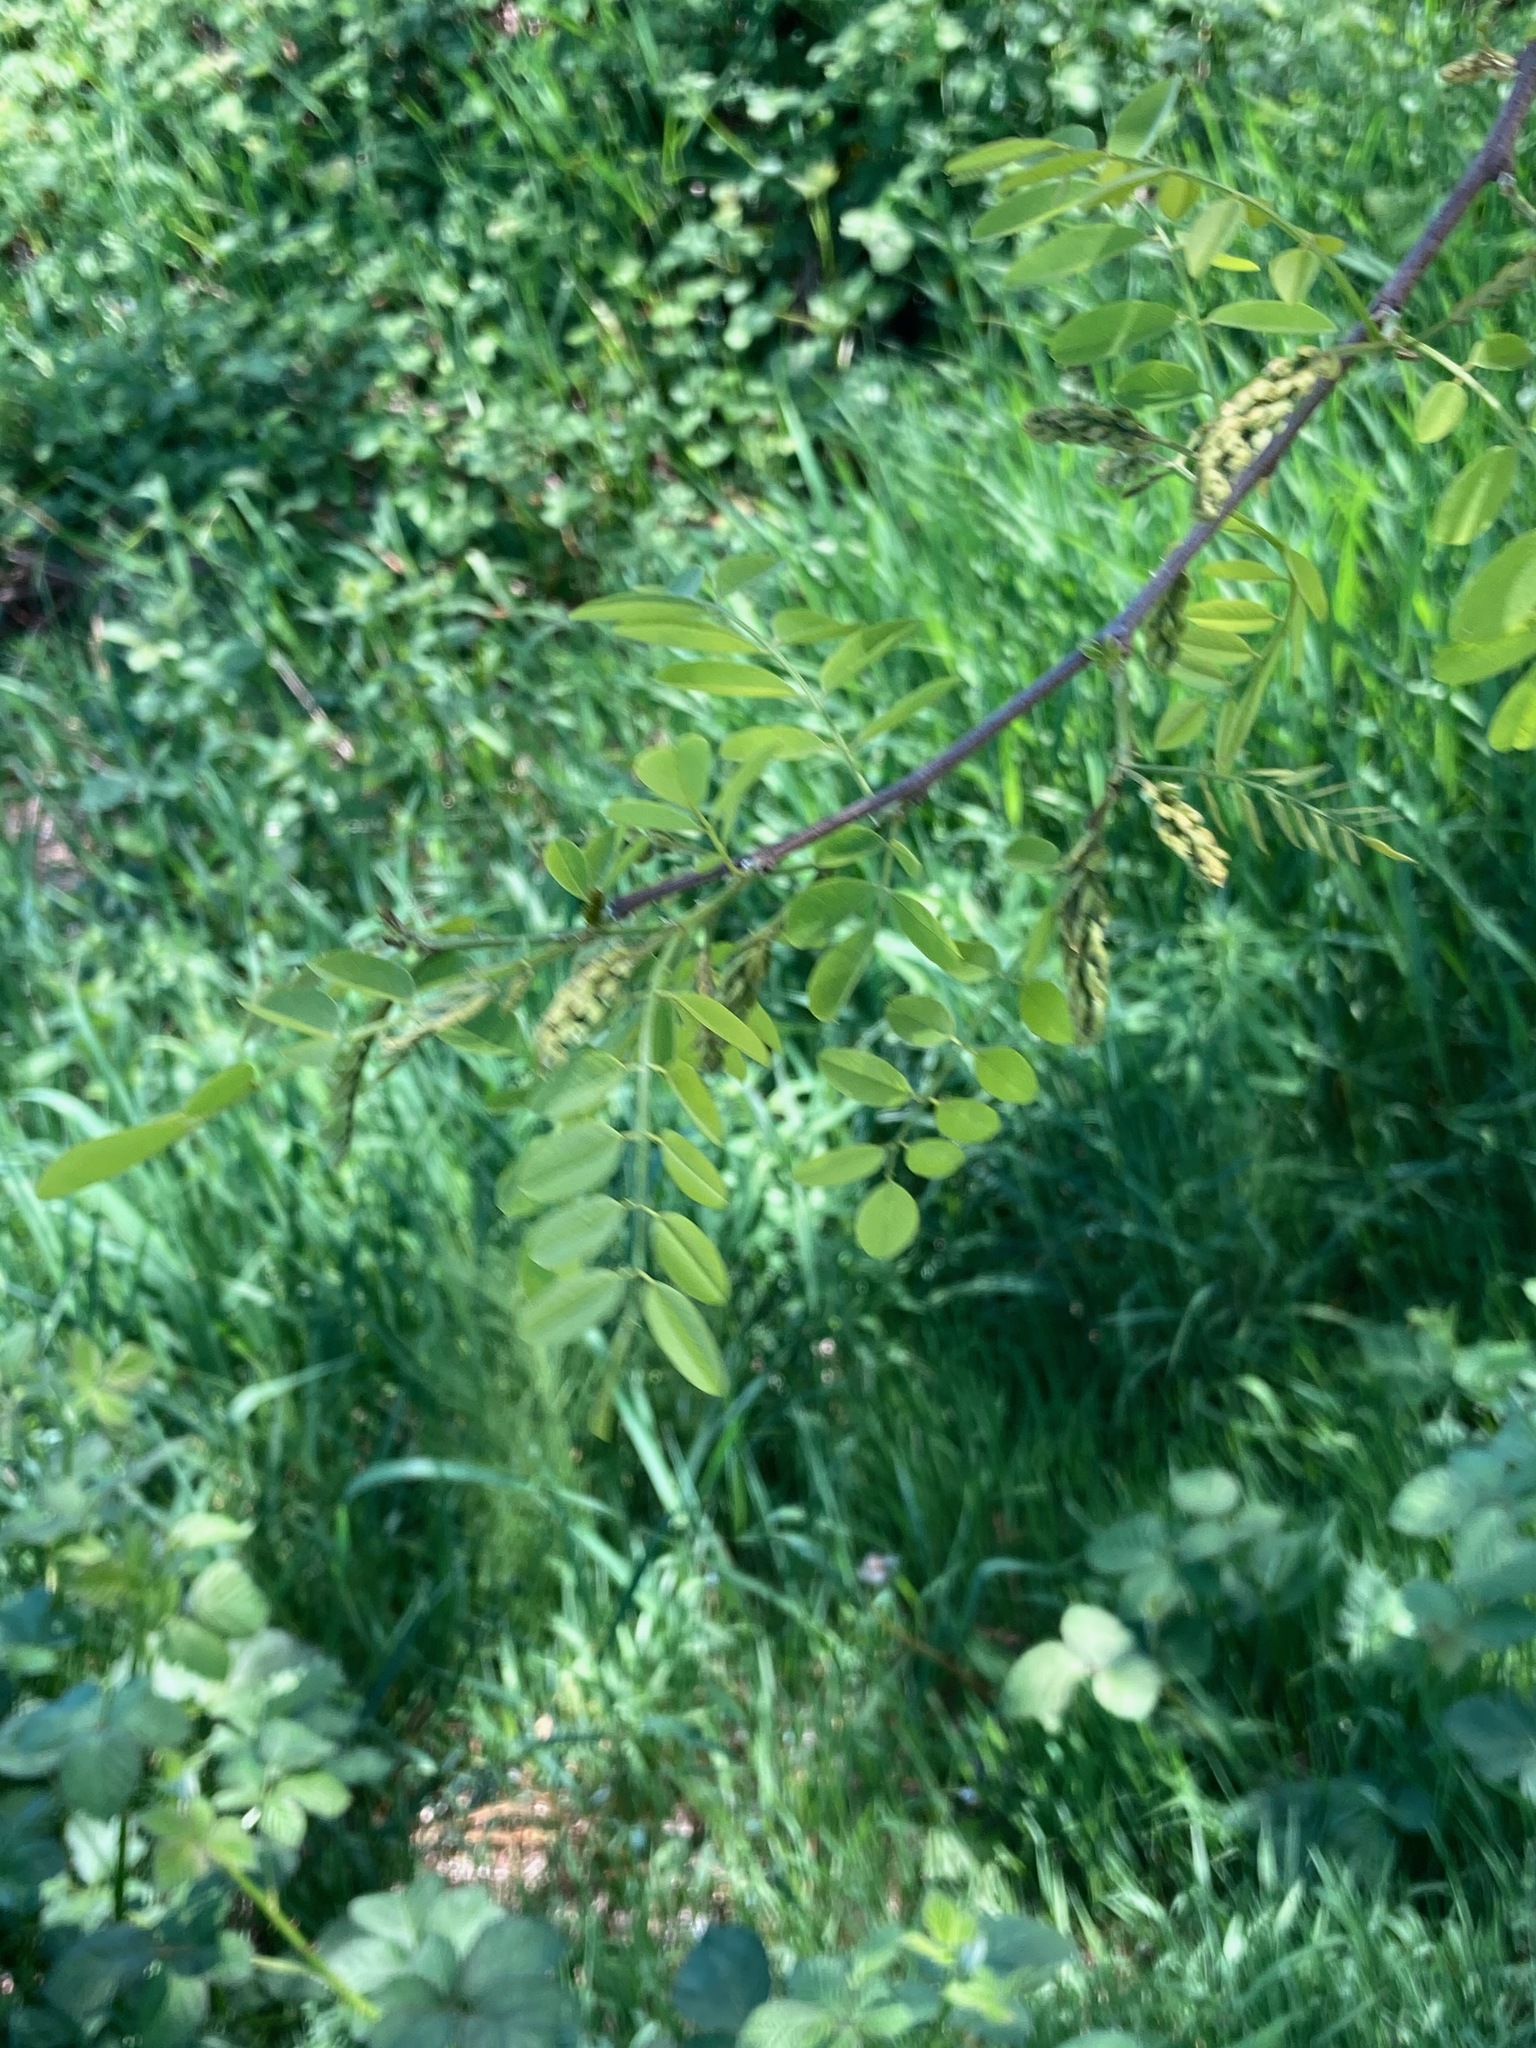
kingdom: Plantae
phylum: Tracheophyta
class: Magnoliopsida
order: Fabales
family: Fabaceae
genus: Robinia
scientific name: Robinia pseudoacacia
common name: Black locust
